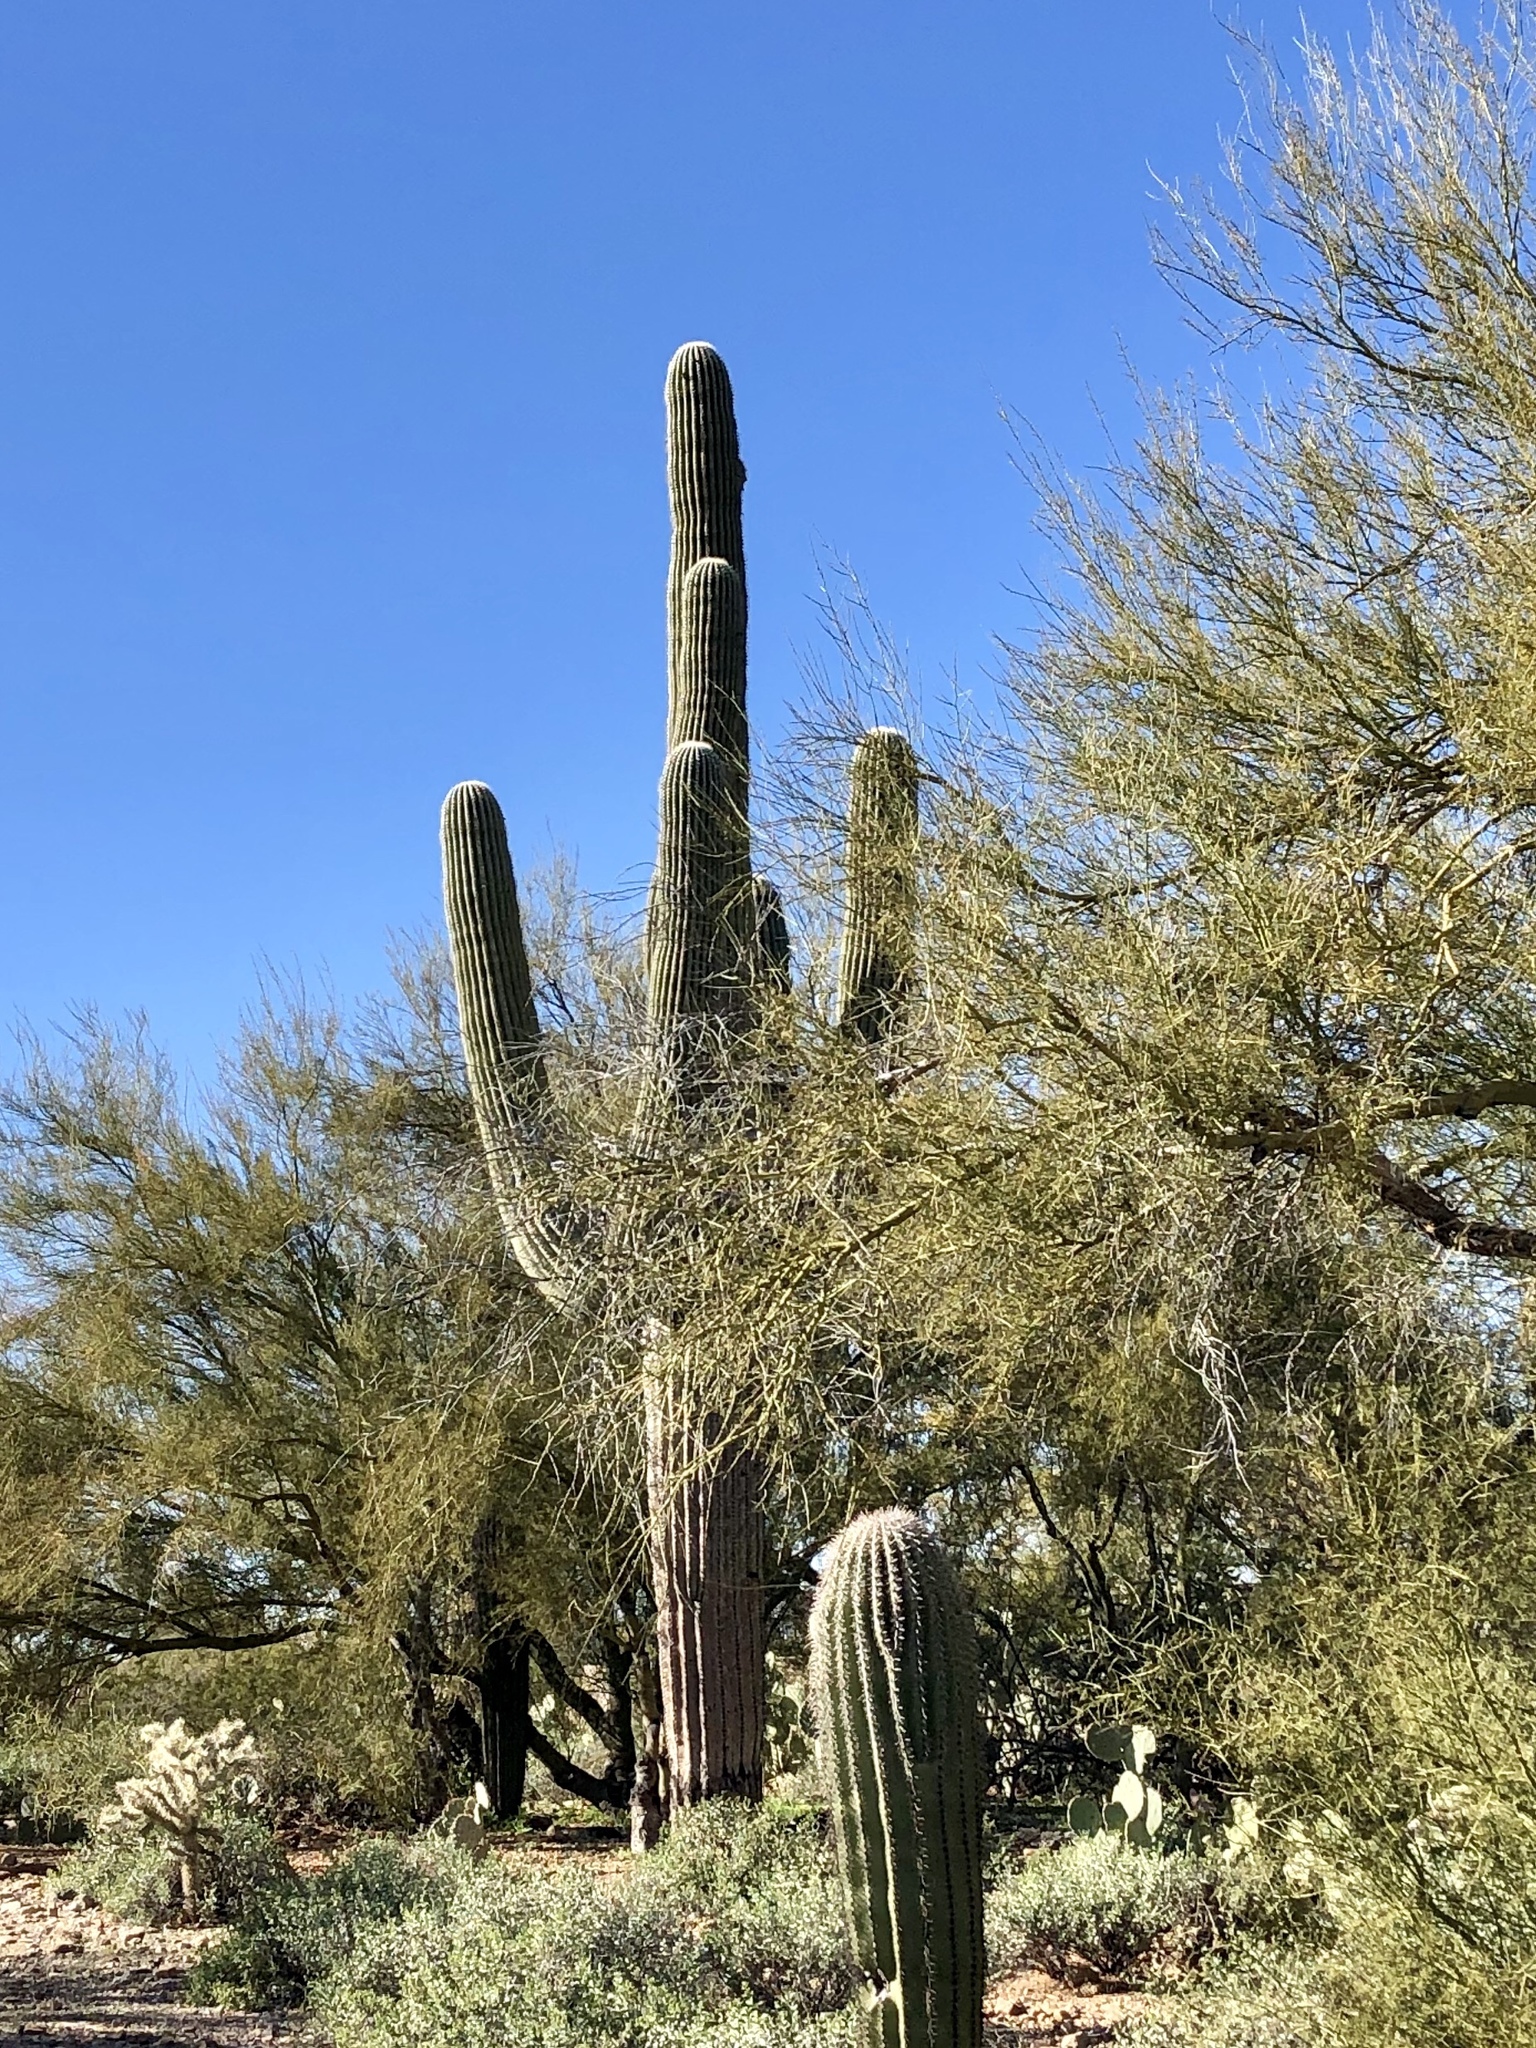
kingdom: Plantae
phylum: Tracheophyta
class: Magnoliopsida
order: Caryophyllales
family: Cactaceae
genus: Carnegiea
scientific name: Carnegiea gigantea
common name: Saguaro
